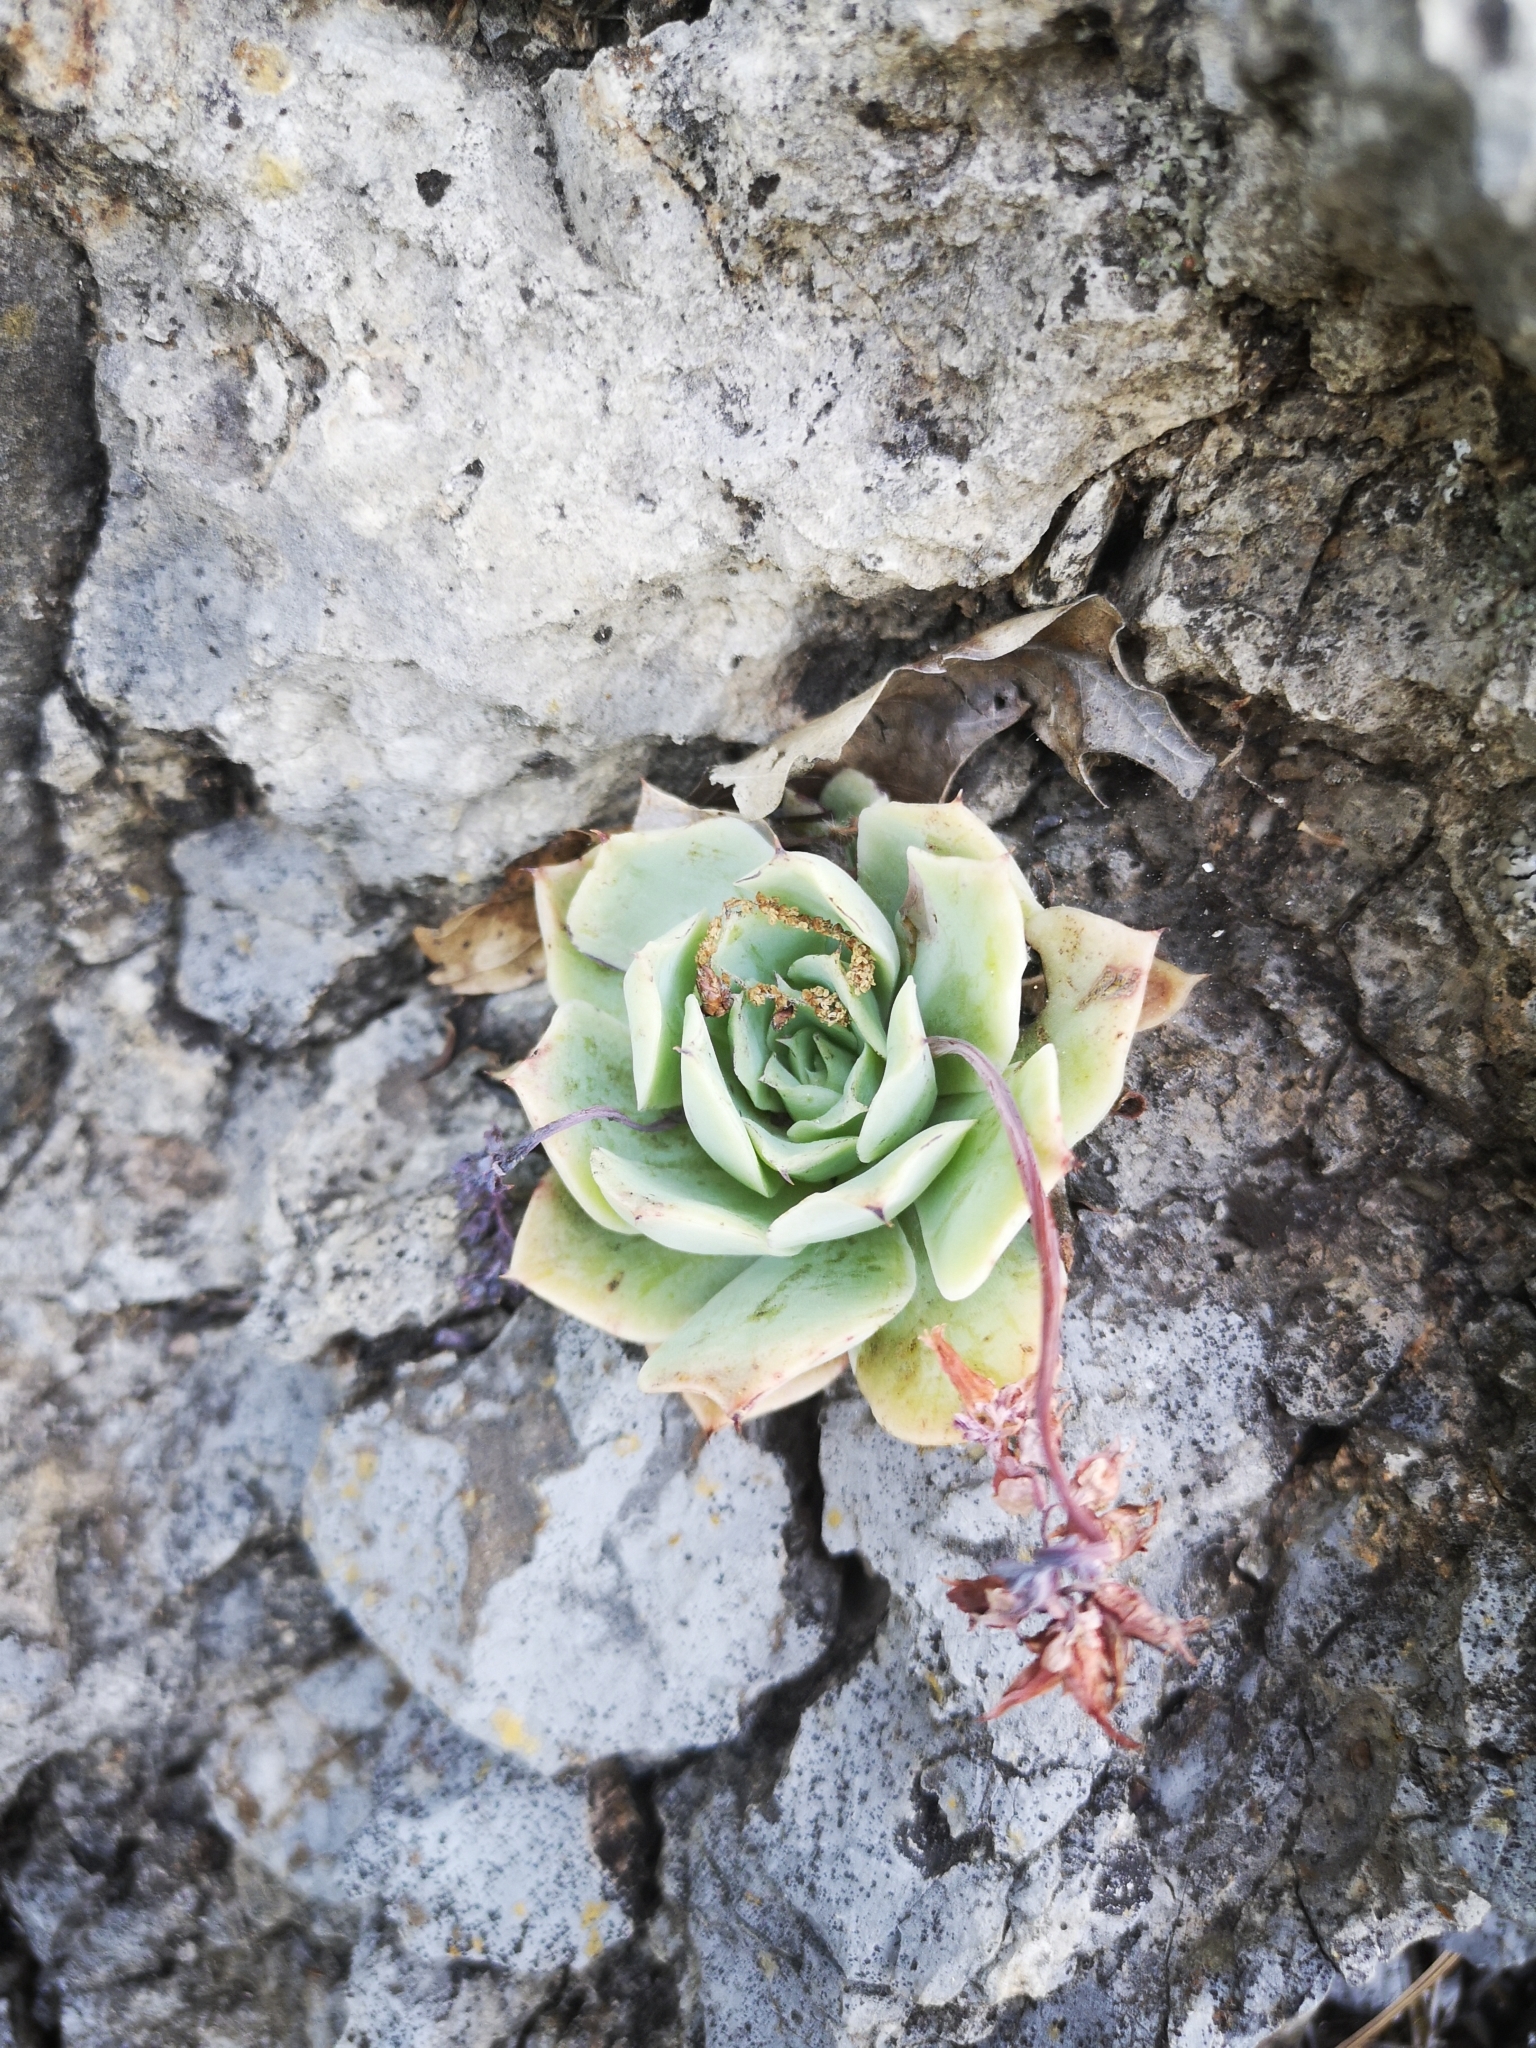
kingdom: Plantae
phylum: Tracheophyta
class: Magnoliopsida
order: Saxifragales
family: Crassulaceae
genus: Echeveria
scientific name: Echeveria simulans
